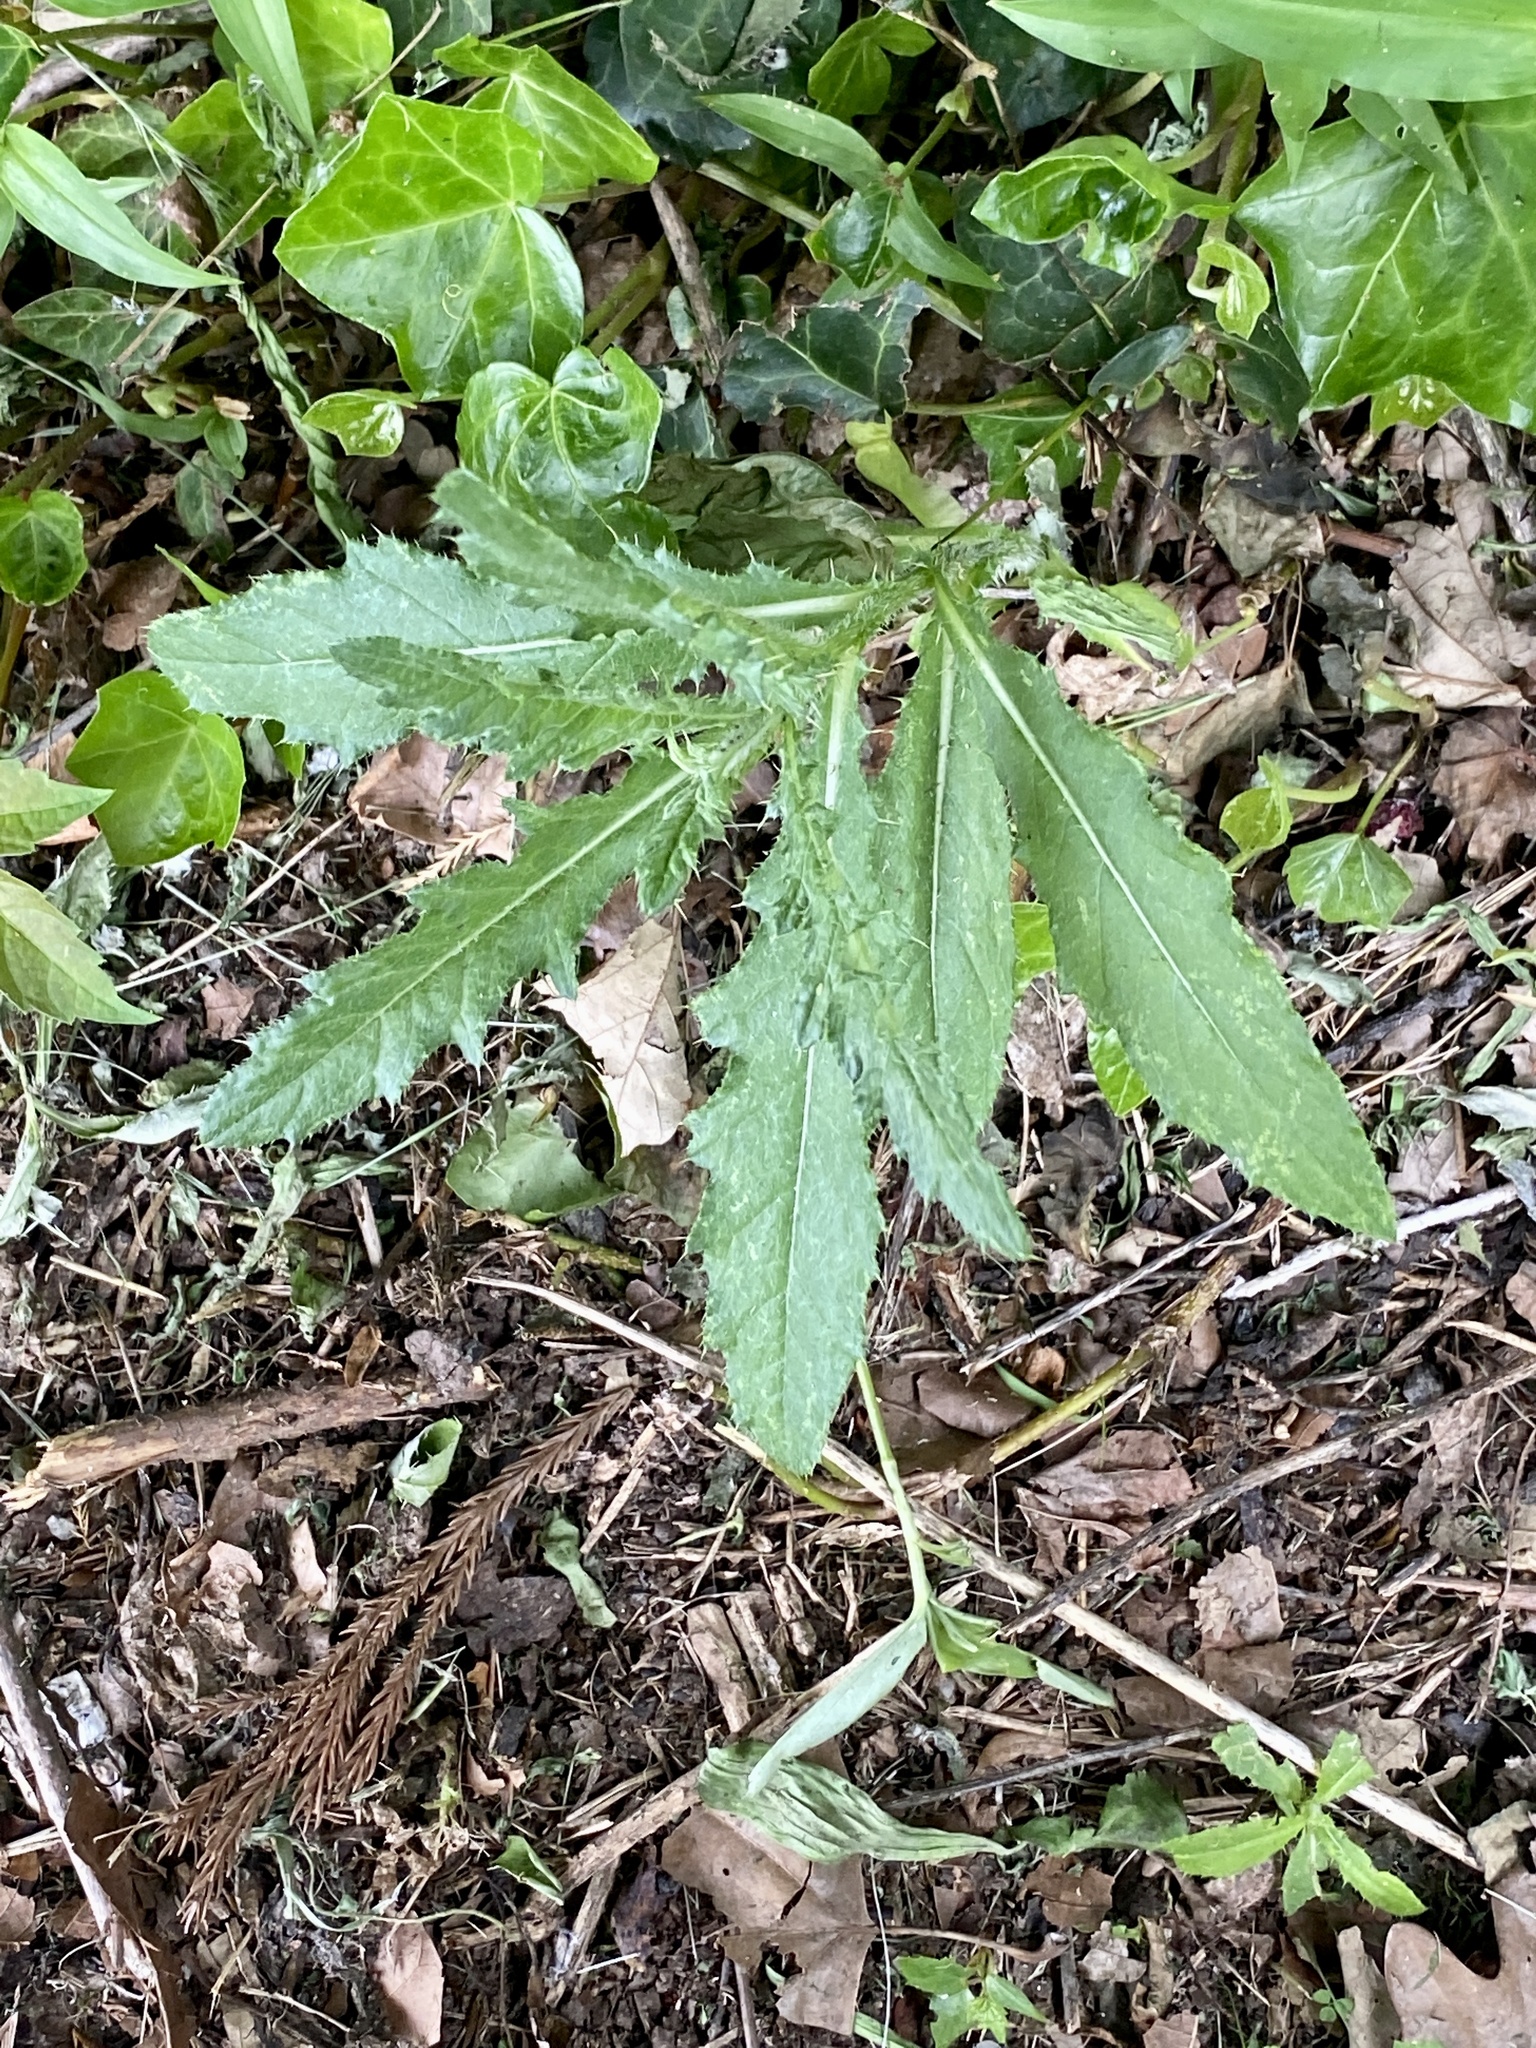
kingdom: Plantae
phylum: Tracheophyta
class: Magnoliopsida
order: Asterales
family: Asteraceae
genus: Cirsium
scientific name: Cirsium arvense
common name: Creeping thistle
